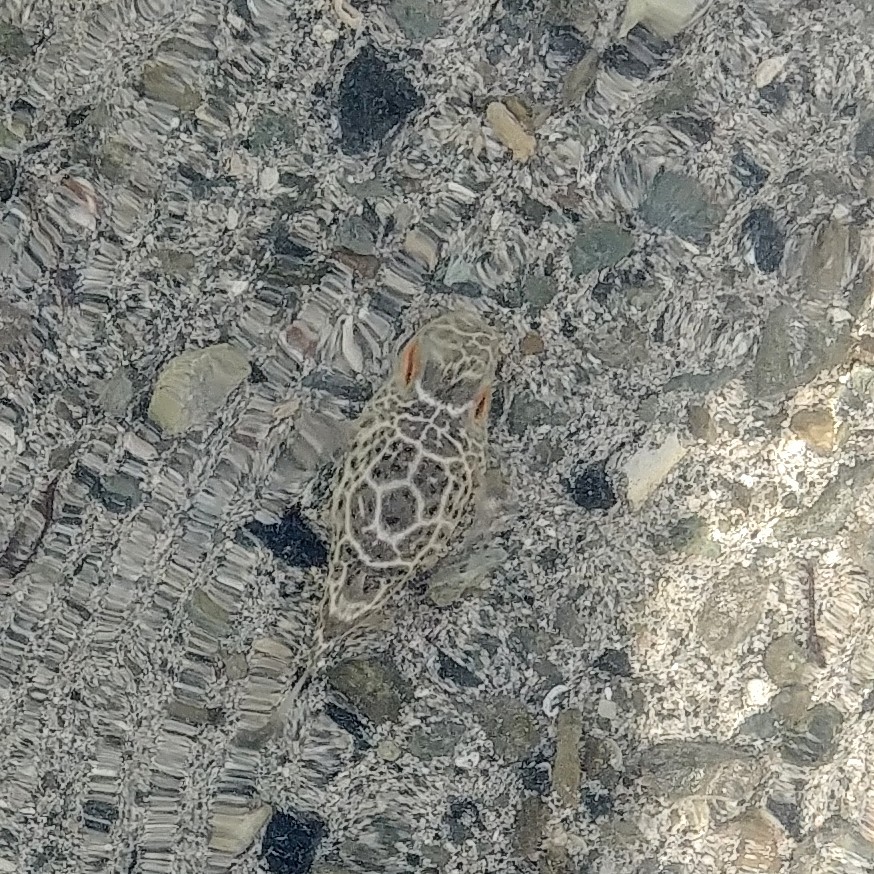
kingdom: Animalia
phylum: Chordata
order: Tetraodontiformes
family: Tetraodontidae
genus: Sphoeroides
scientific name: Sphoeroides testudineus
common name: Checkered puffer
